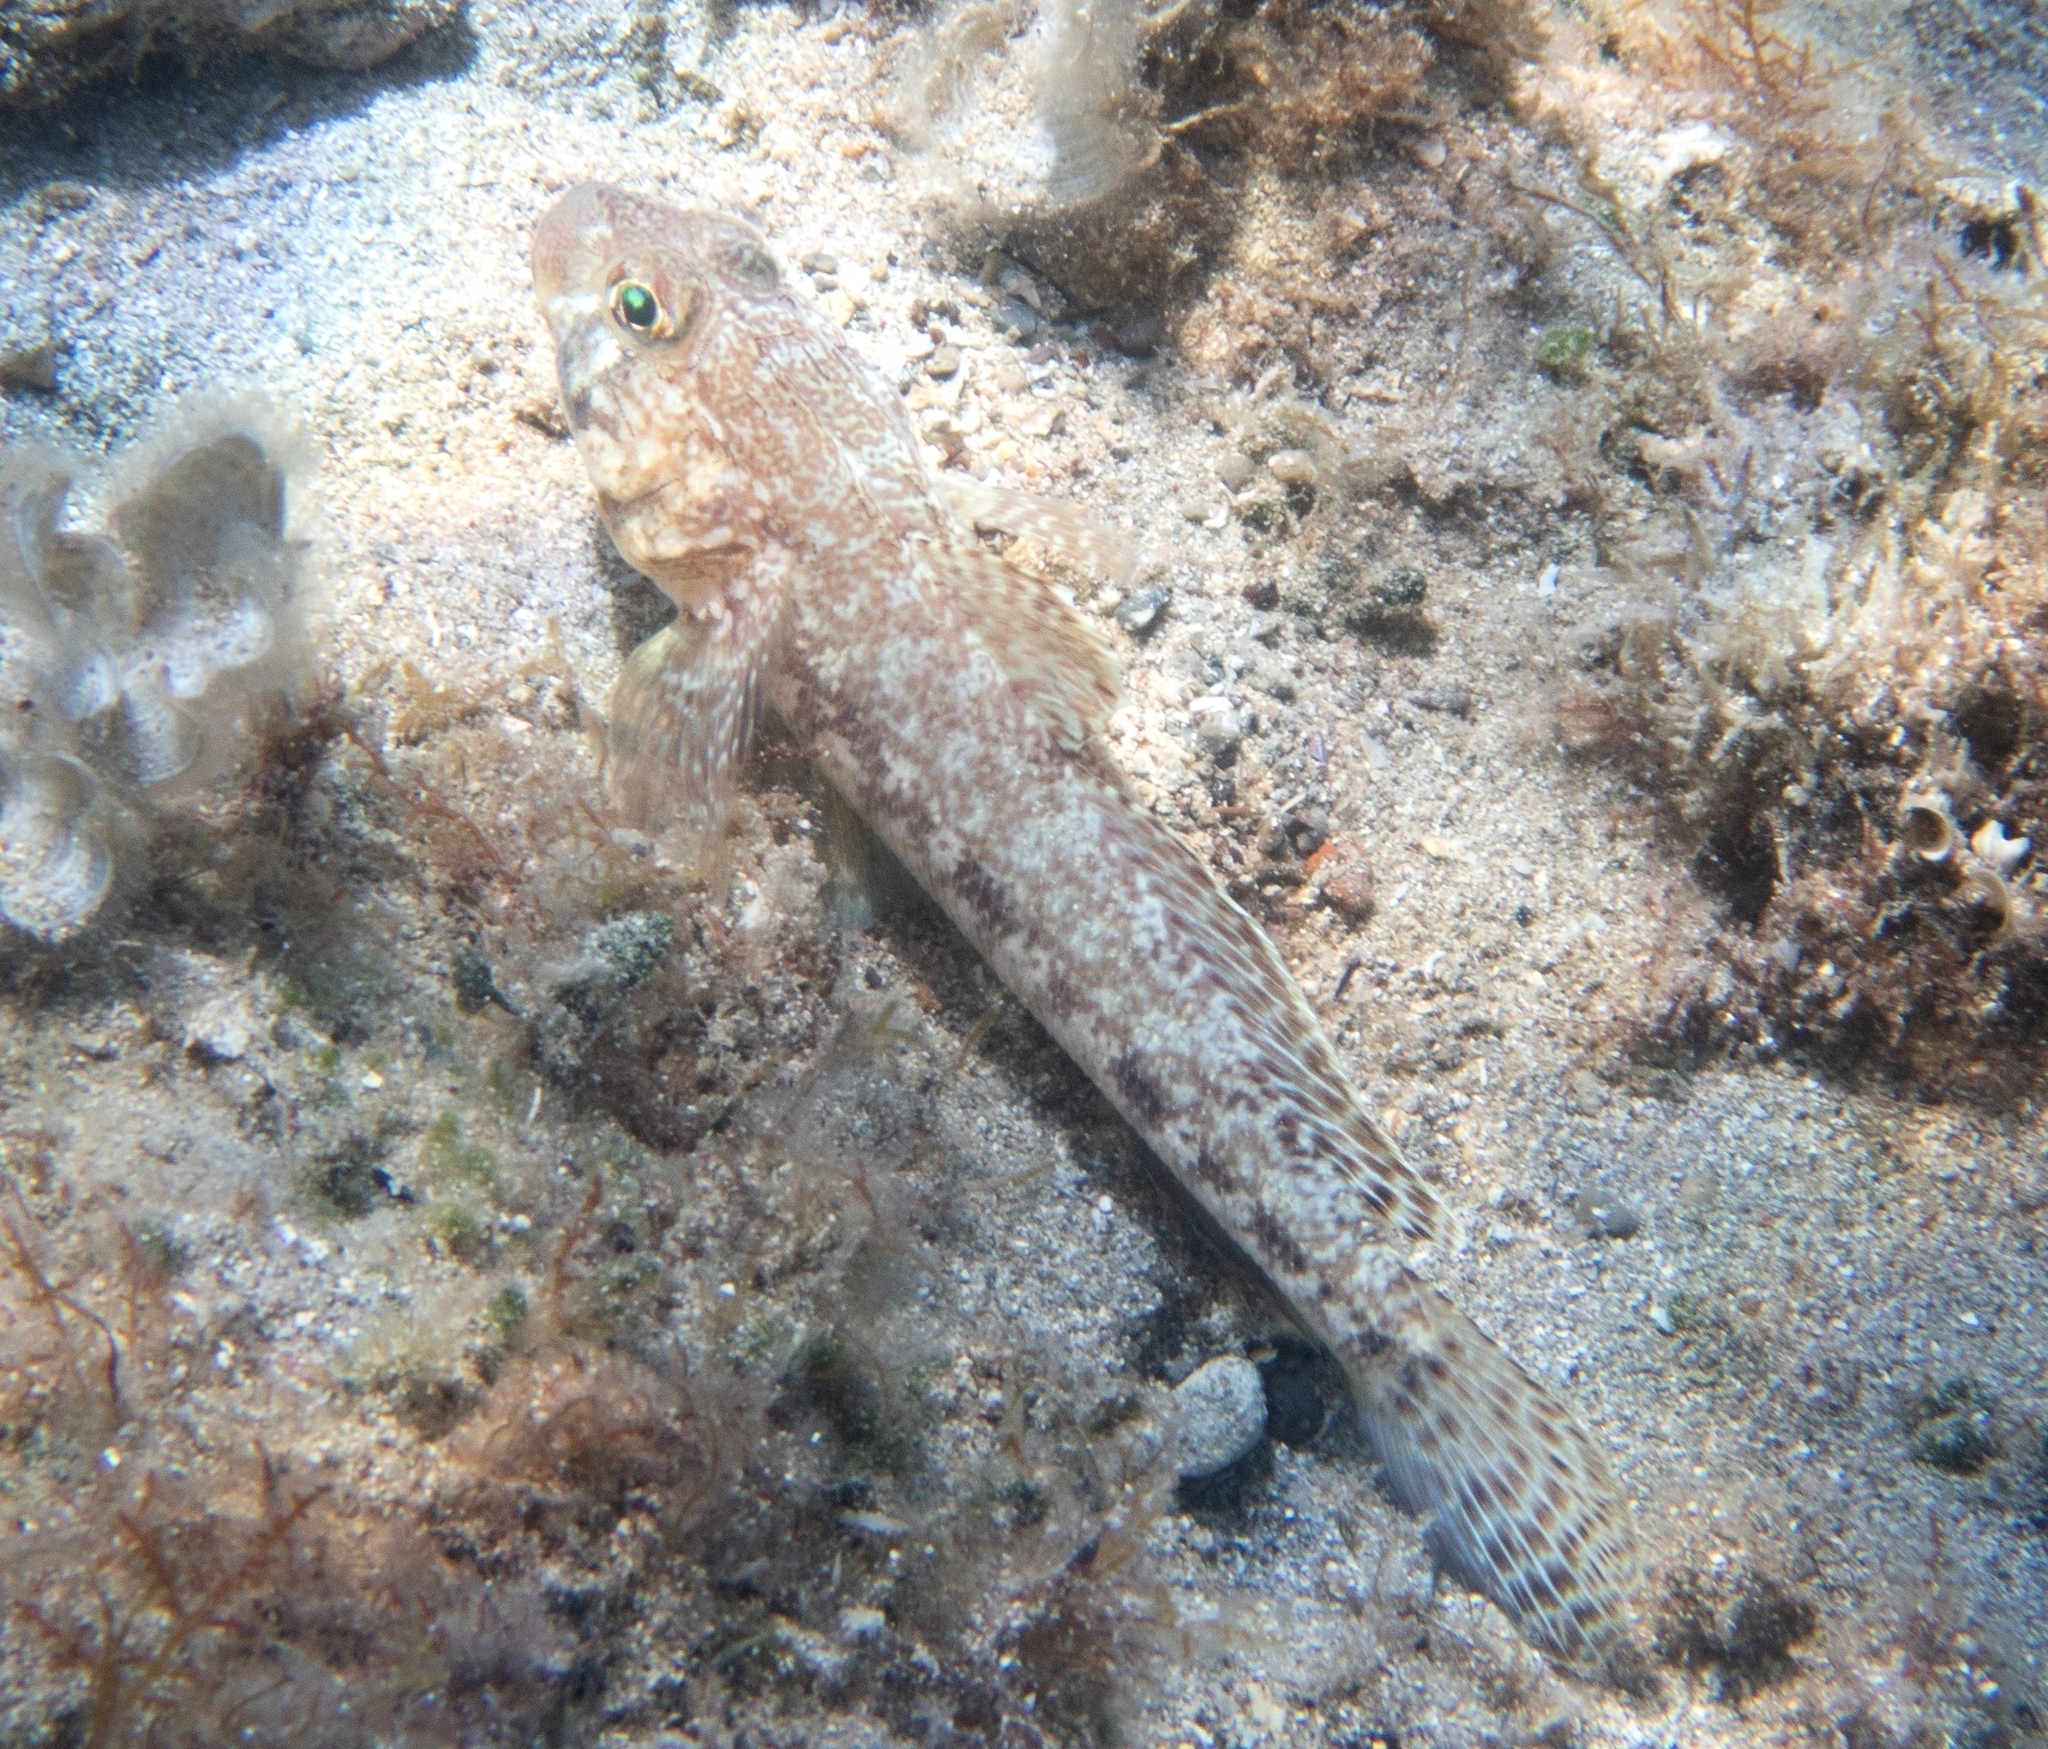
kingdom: Animalia
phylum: Chordata
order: Perciformes
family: Gobiidae
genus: Gobius
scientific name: Gobius geniporus
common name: Slender goby
